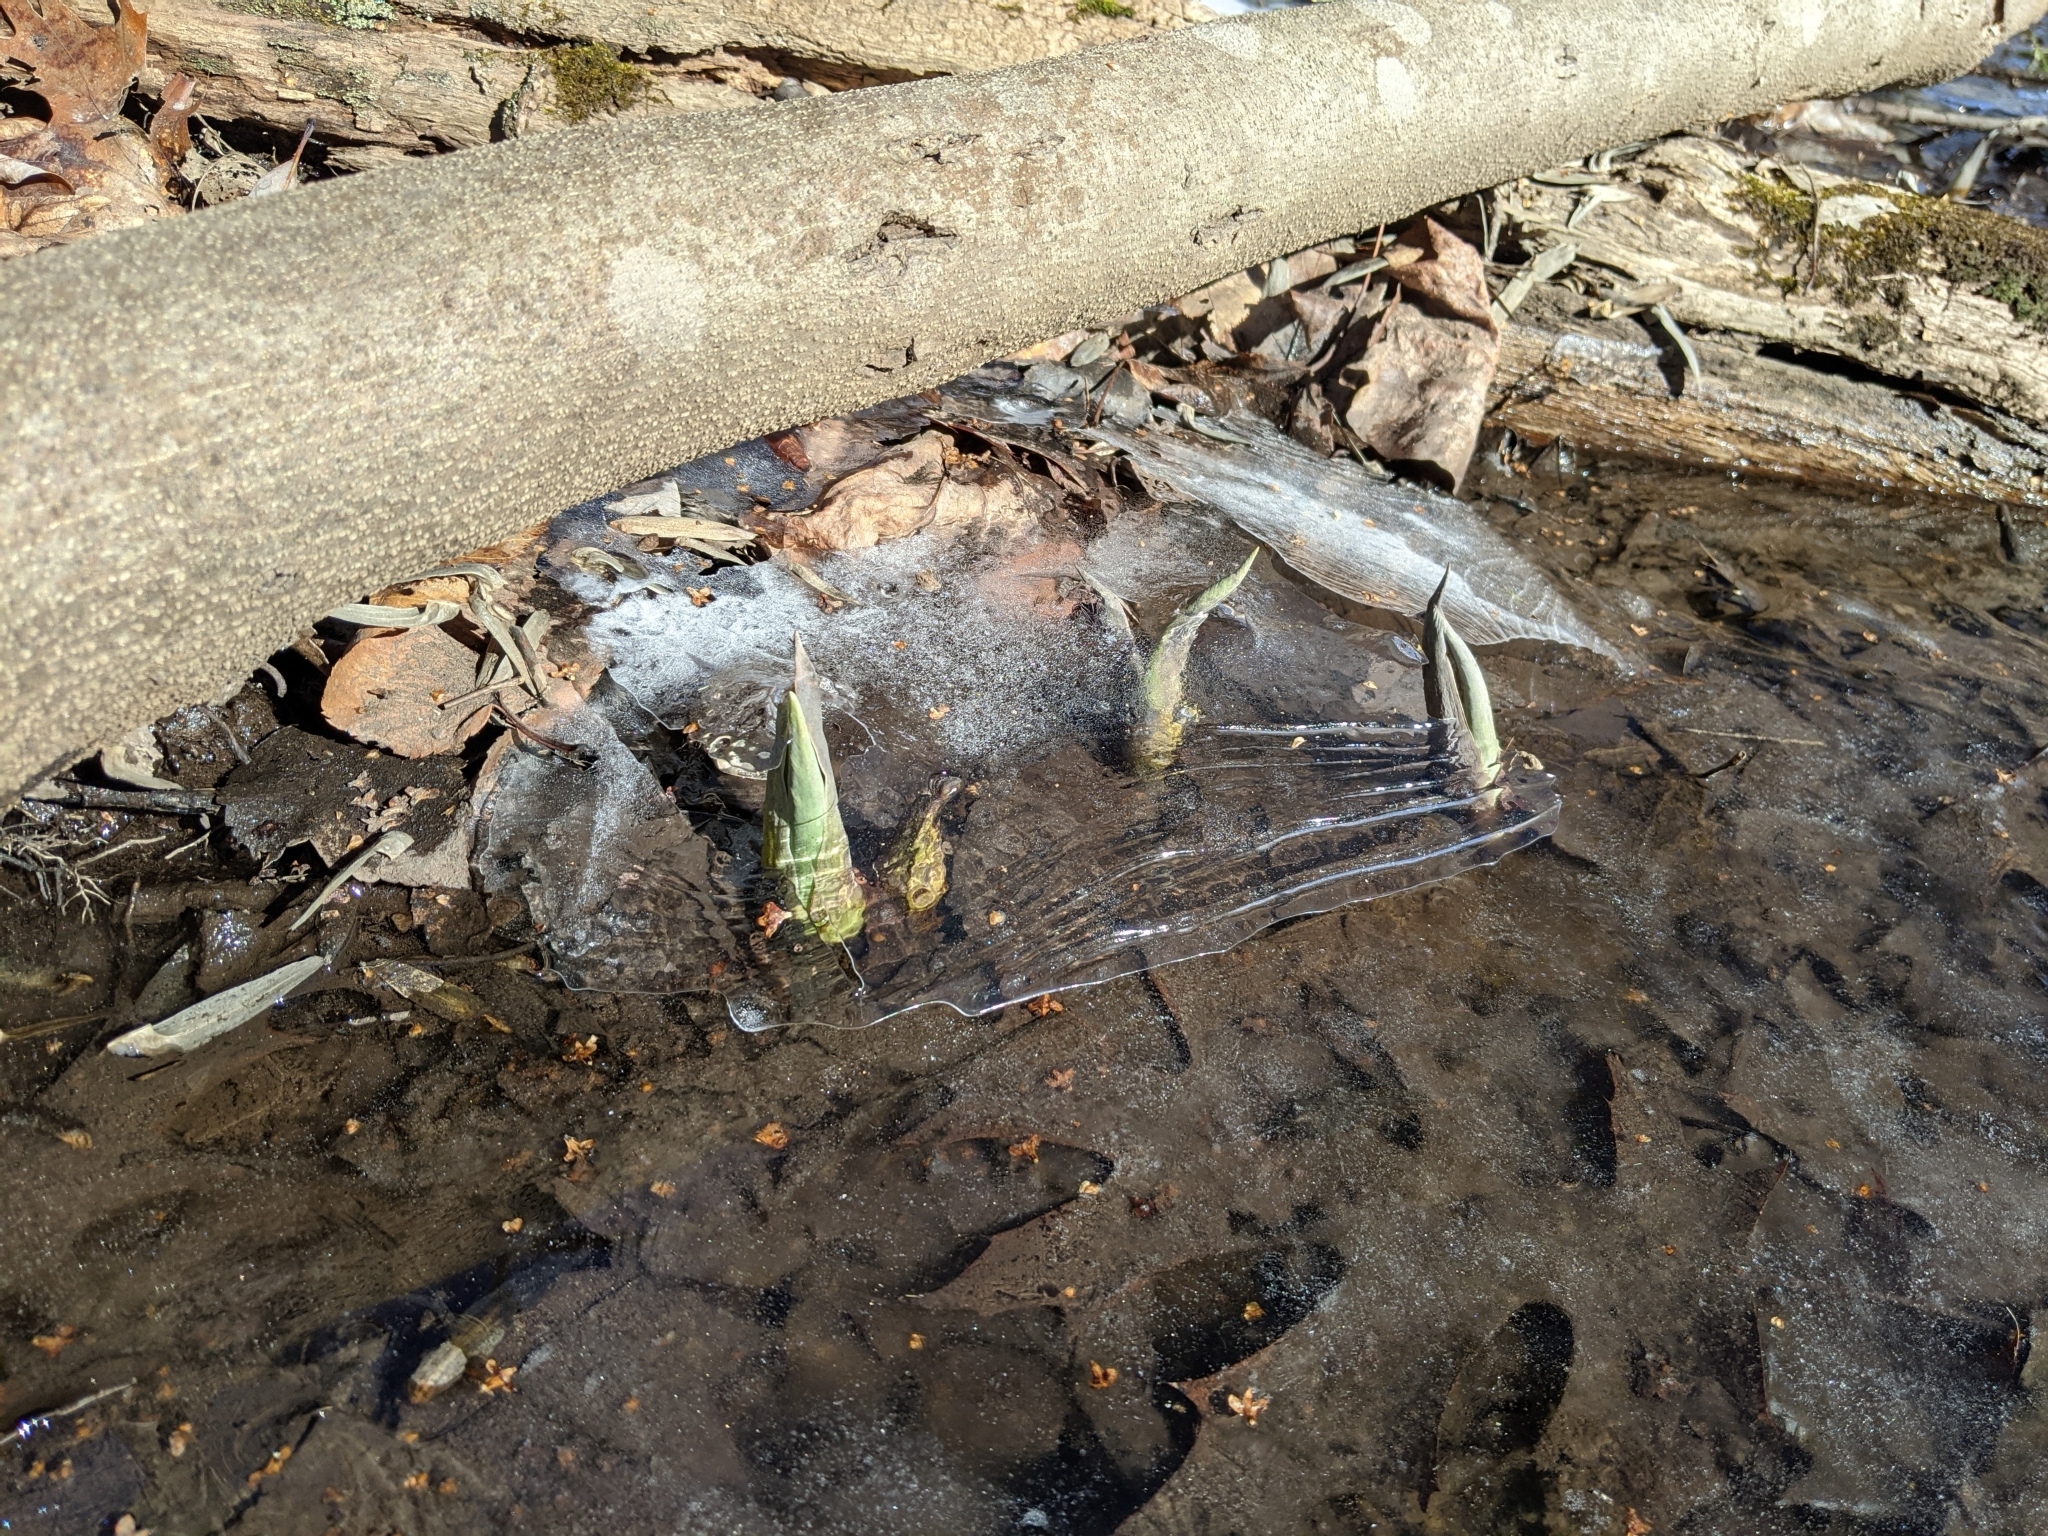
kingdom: Plantae
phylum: Tracheophyta
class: Liliopsida
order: Alismatales
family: Araceae
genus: Symplocarpus
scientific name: Symplocarpus foetidus
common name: Eastern skunk cabbage
